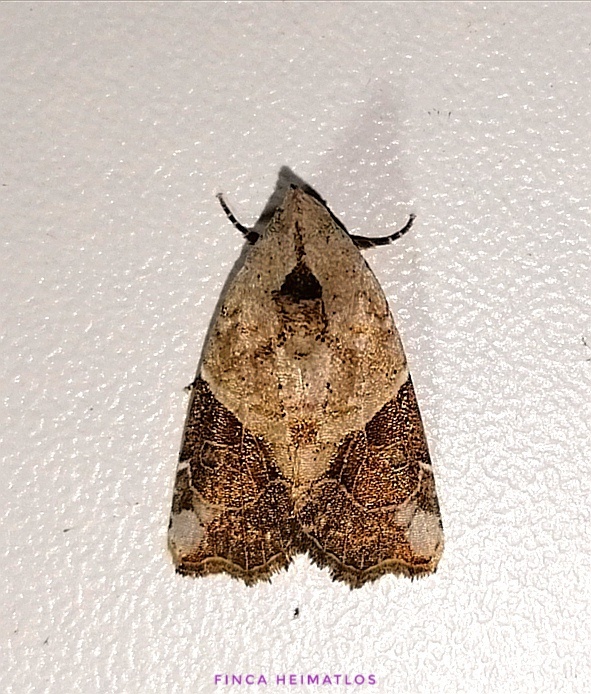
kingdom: Animalia
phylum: Arthropoda
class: Insecta
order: Lepidoptera
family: Noctuidae
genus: Gonodes
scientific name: Gonodes liquida
